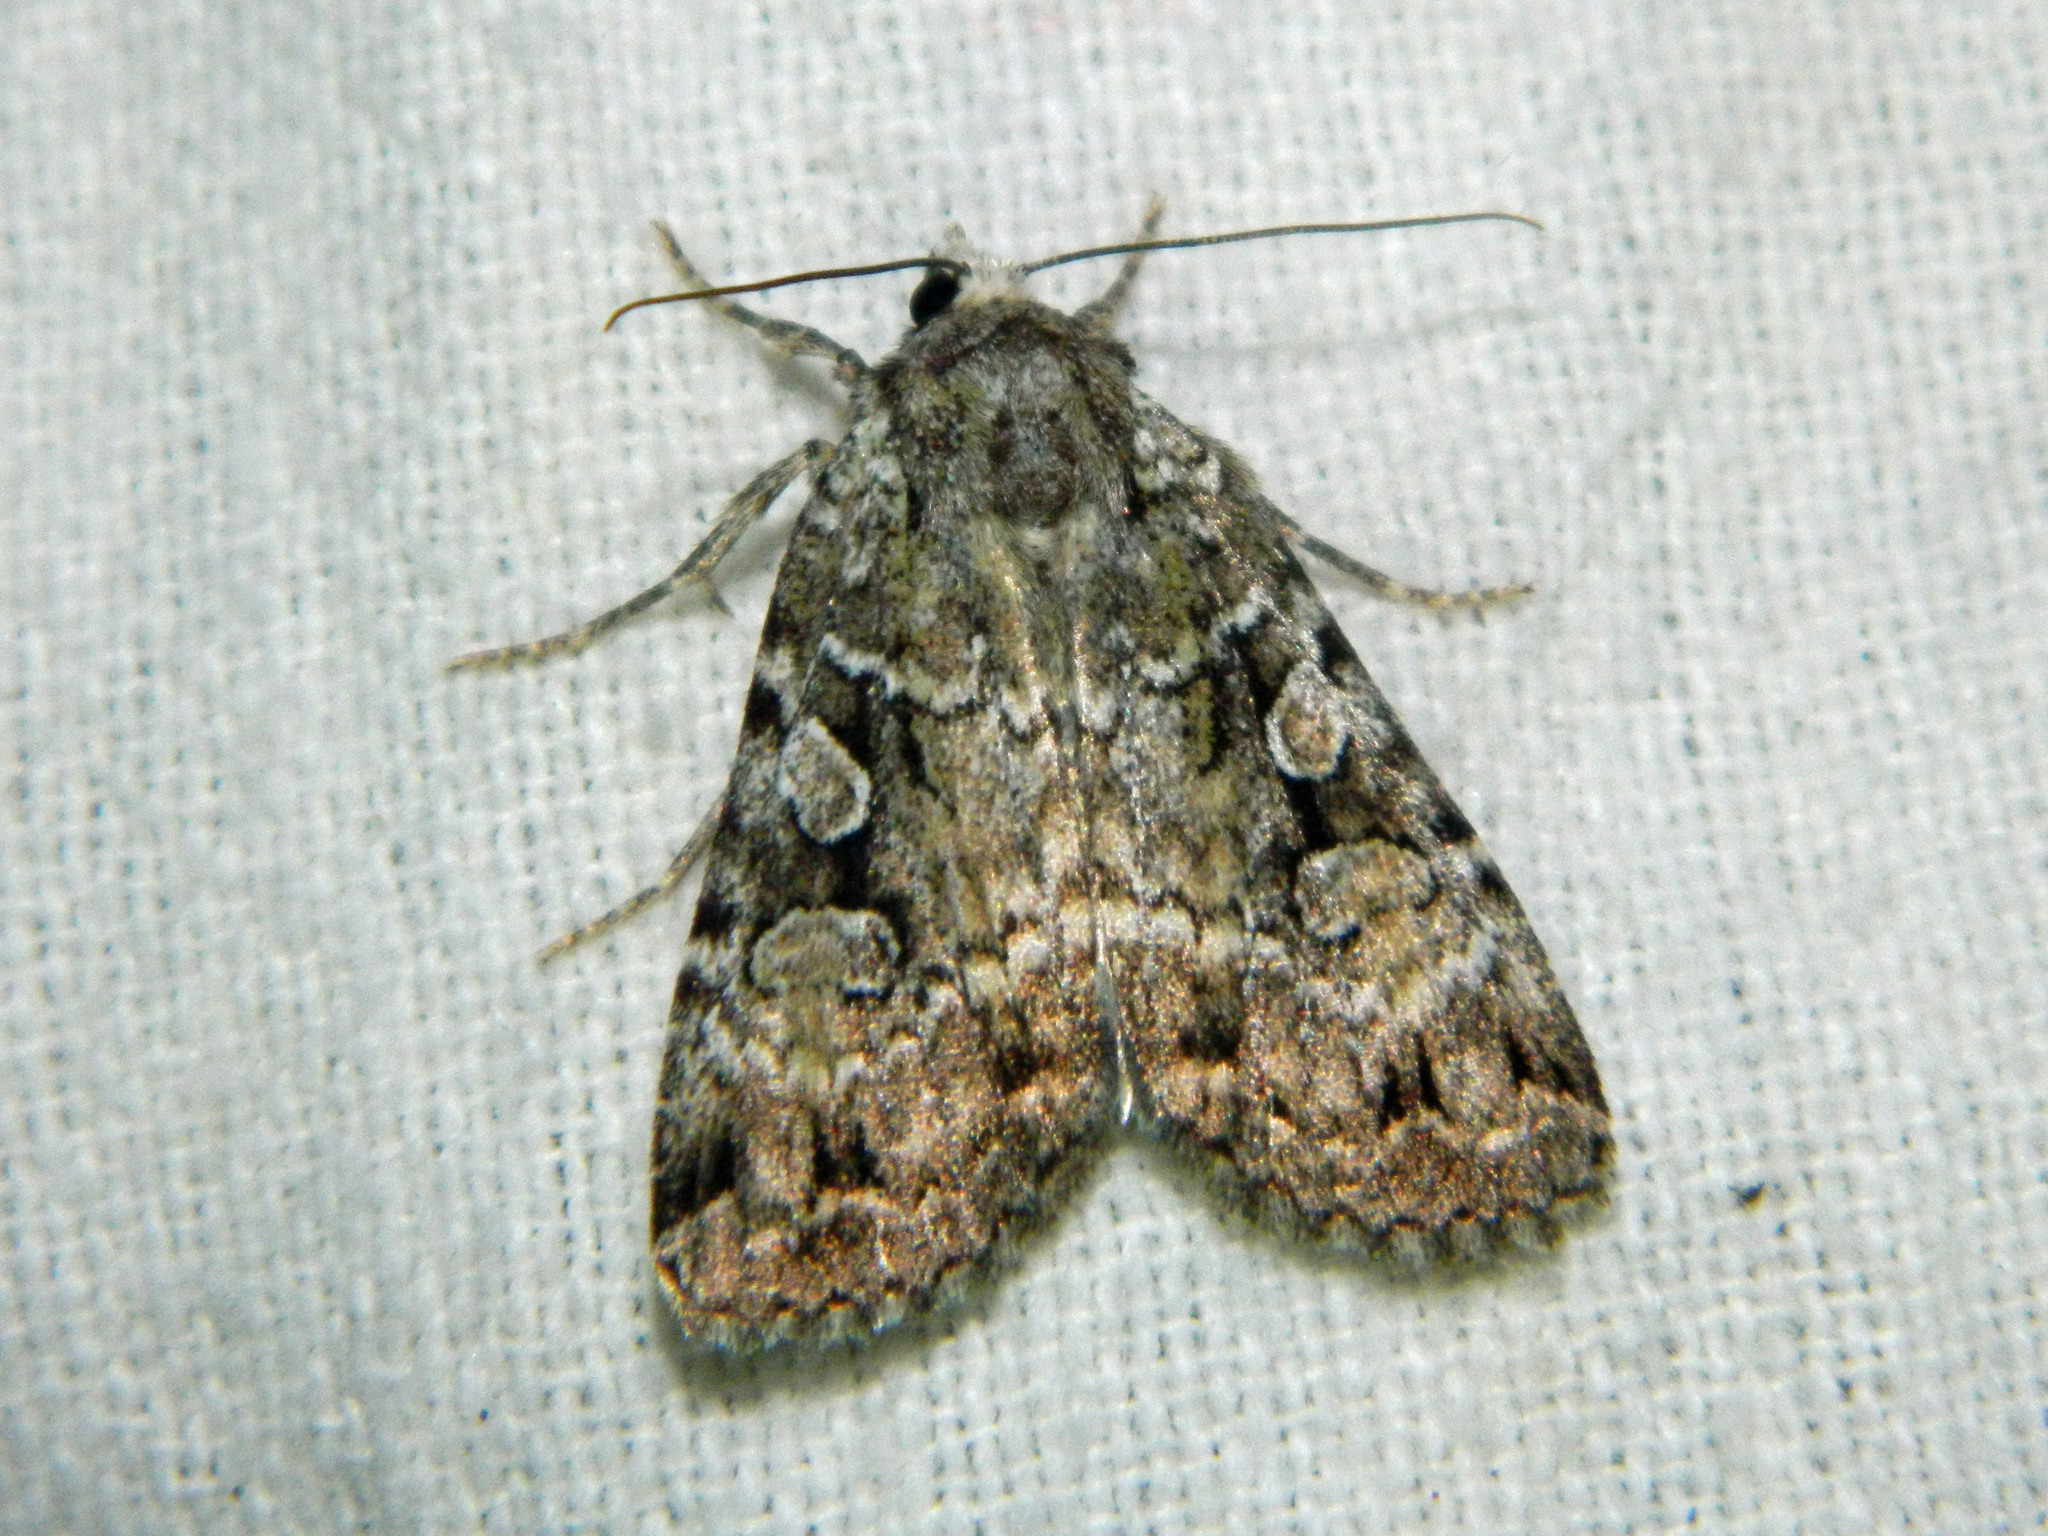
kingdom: Animalia
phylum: Arthropoda
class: Insecta
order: Lepidoptera
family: Noctuidae
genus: Anaplectoides
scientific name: Anaplectoides pressus
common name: Dappled dart
